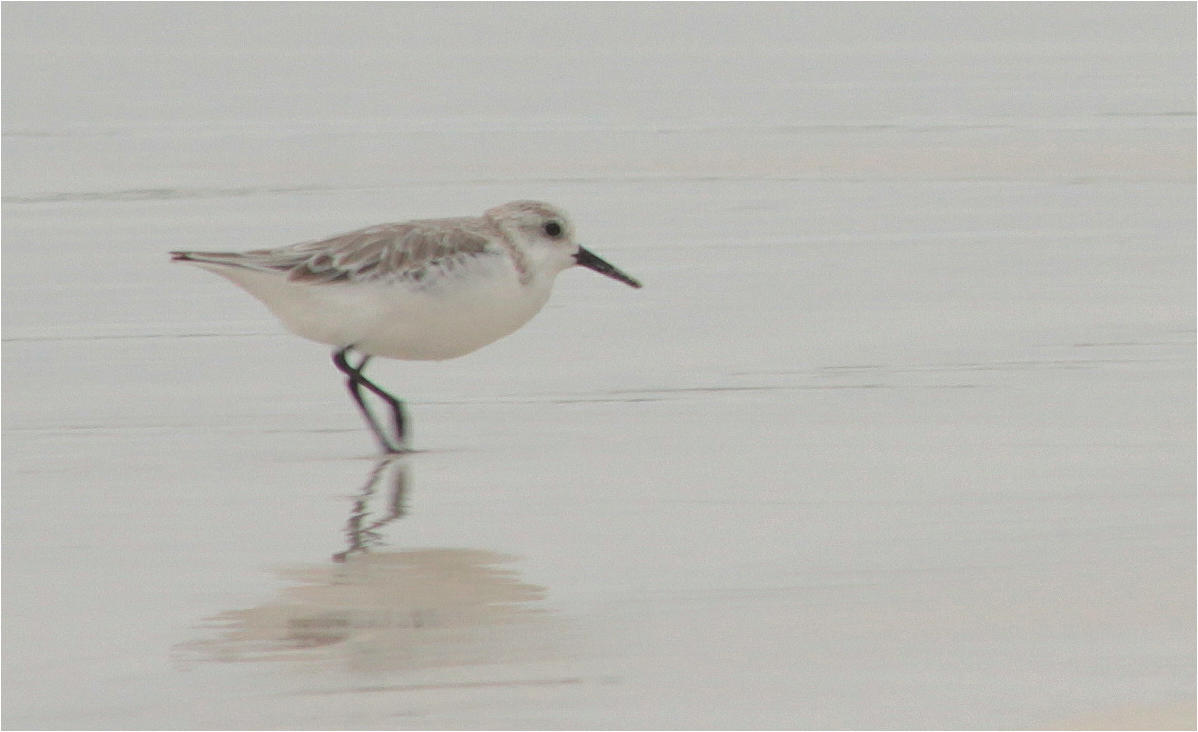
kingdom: Animalia
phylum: Chordata
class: Aves
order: Charadriiformes
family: Scolopacidae
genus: Calidris
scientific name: Calidris alba
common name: Sanderling
